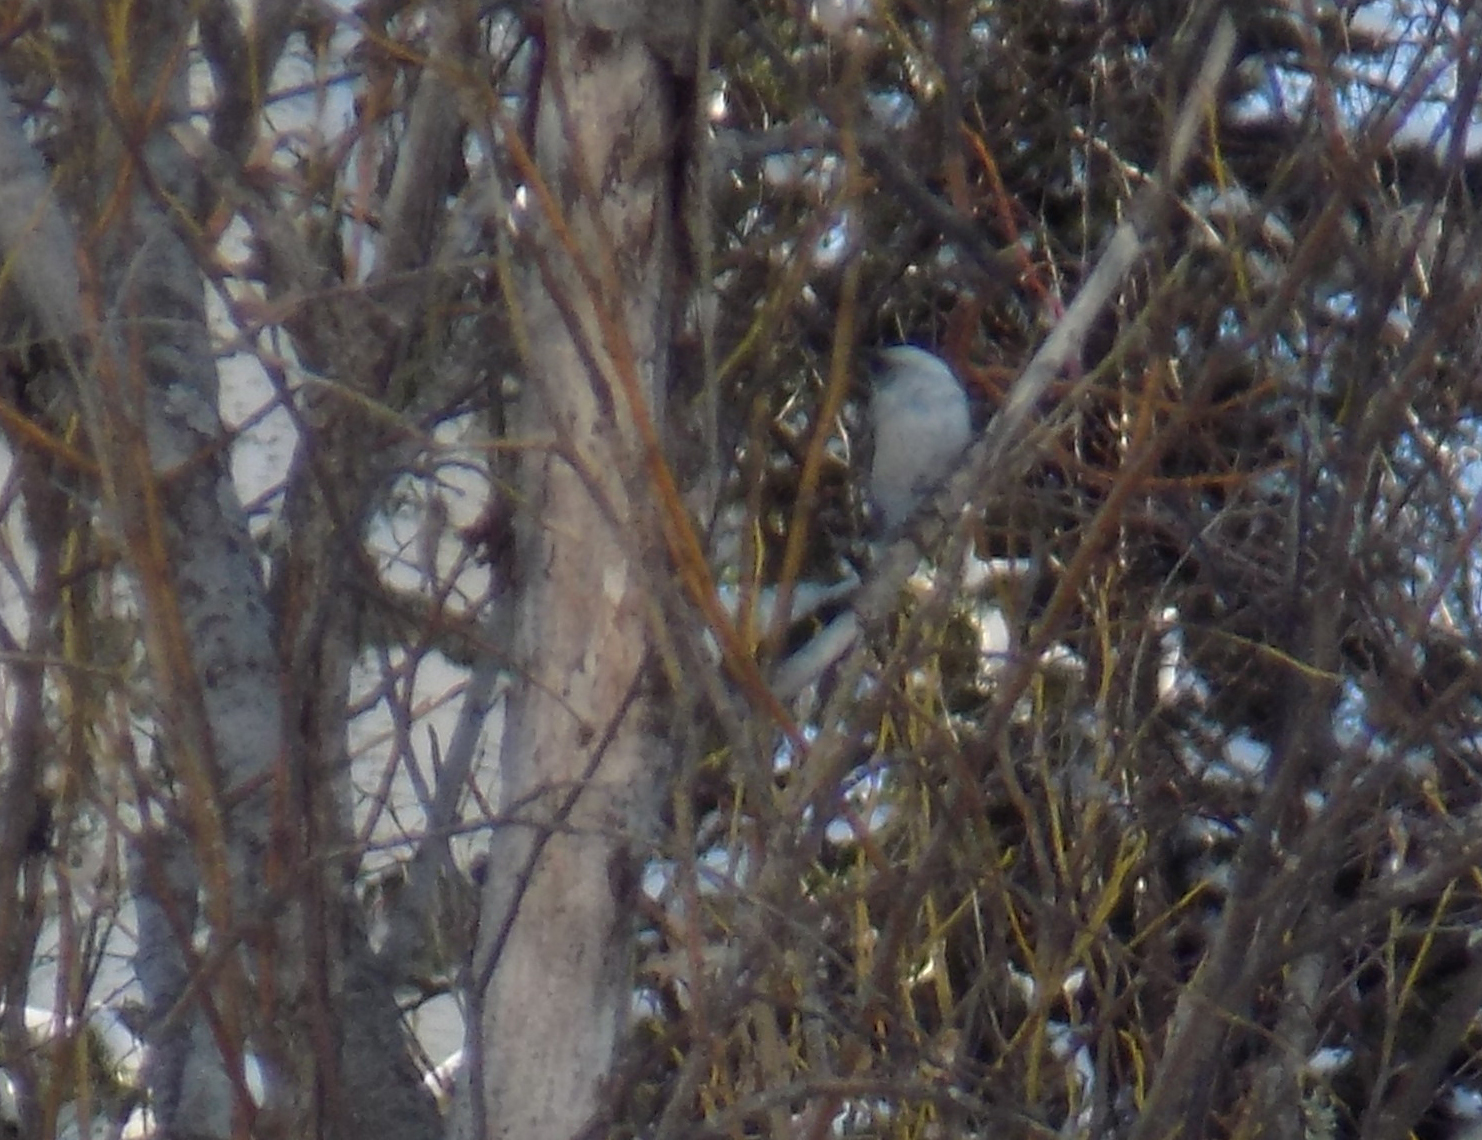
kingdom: Animalia
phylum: Chordata
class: Aves
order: Passeriformes
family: Sittidae
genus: Sitta
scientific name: Sitta europaea
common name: Eurasian nuthatch
